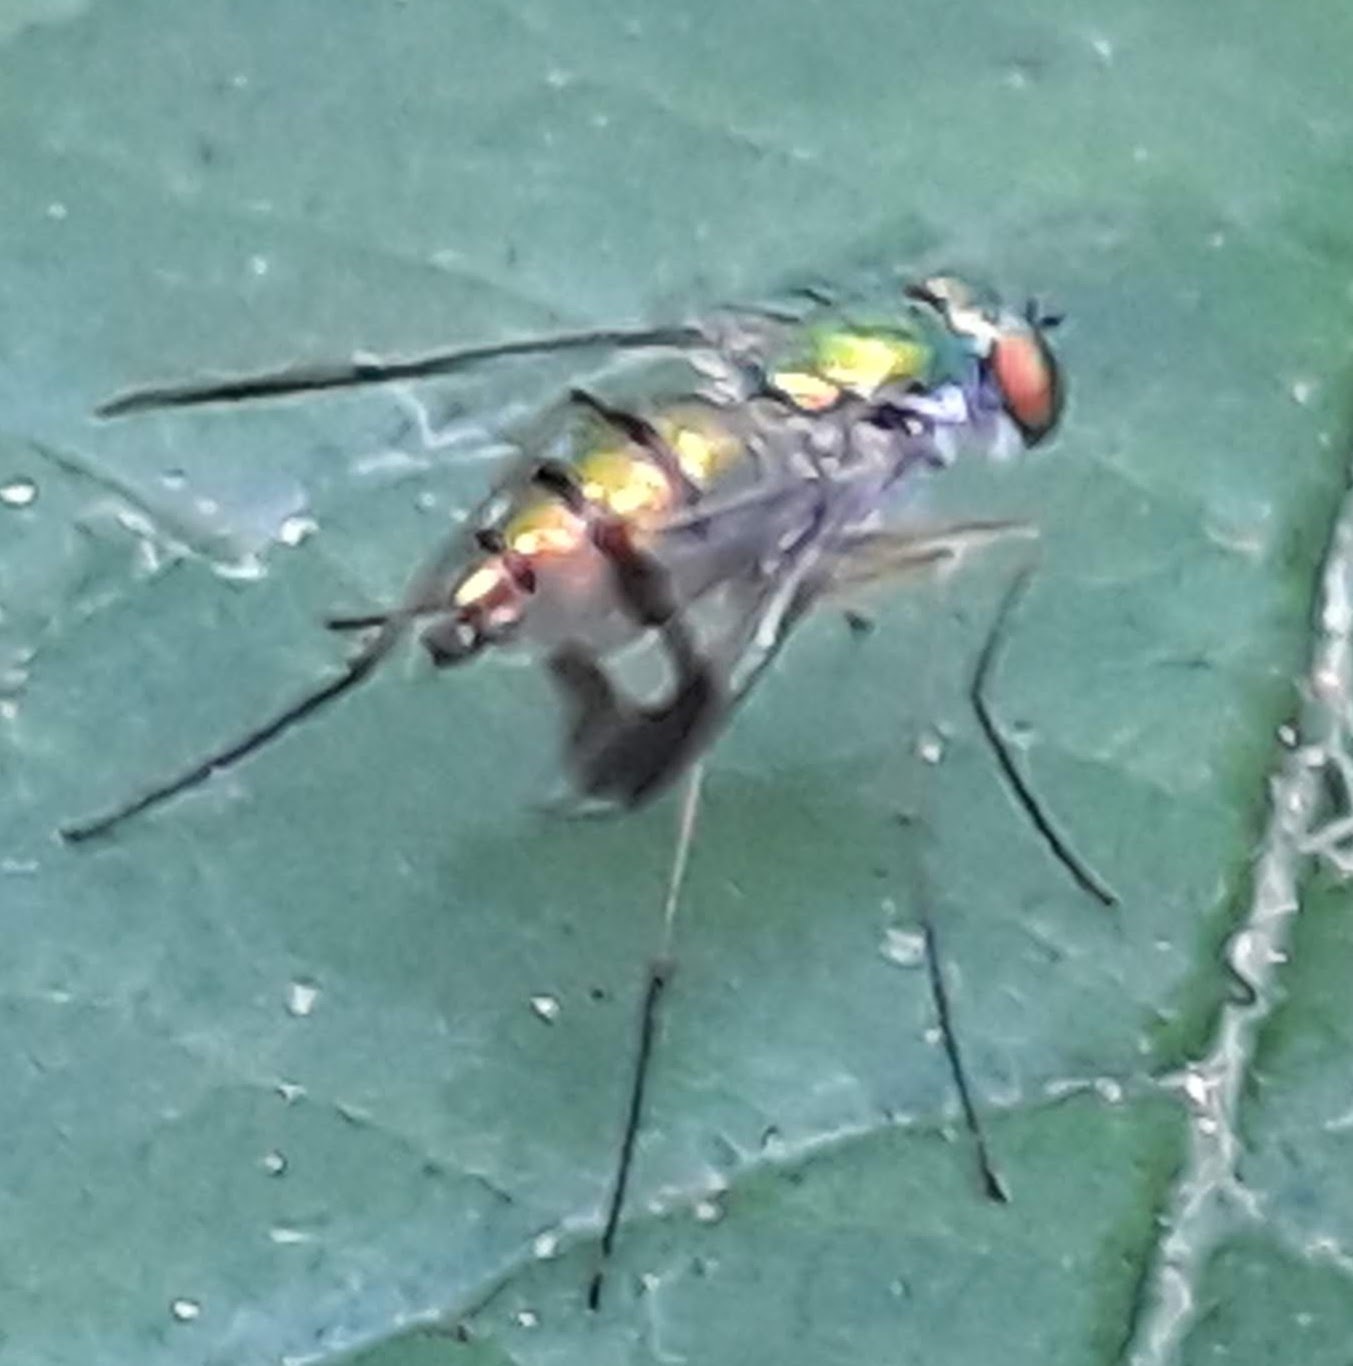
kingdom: Animalia
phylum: Arthropoda
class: Insecta
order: Diptera
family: Dolichopodidae
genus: Condylostylus
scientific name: Condylostylus
